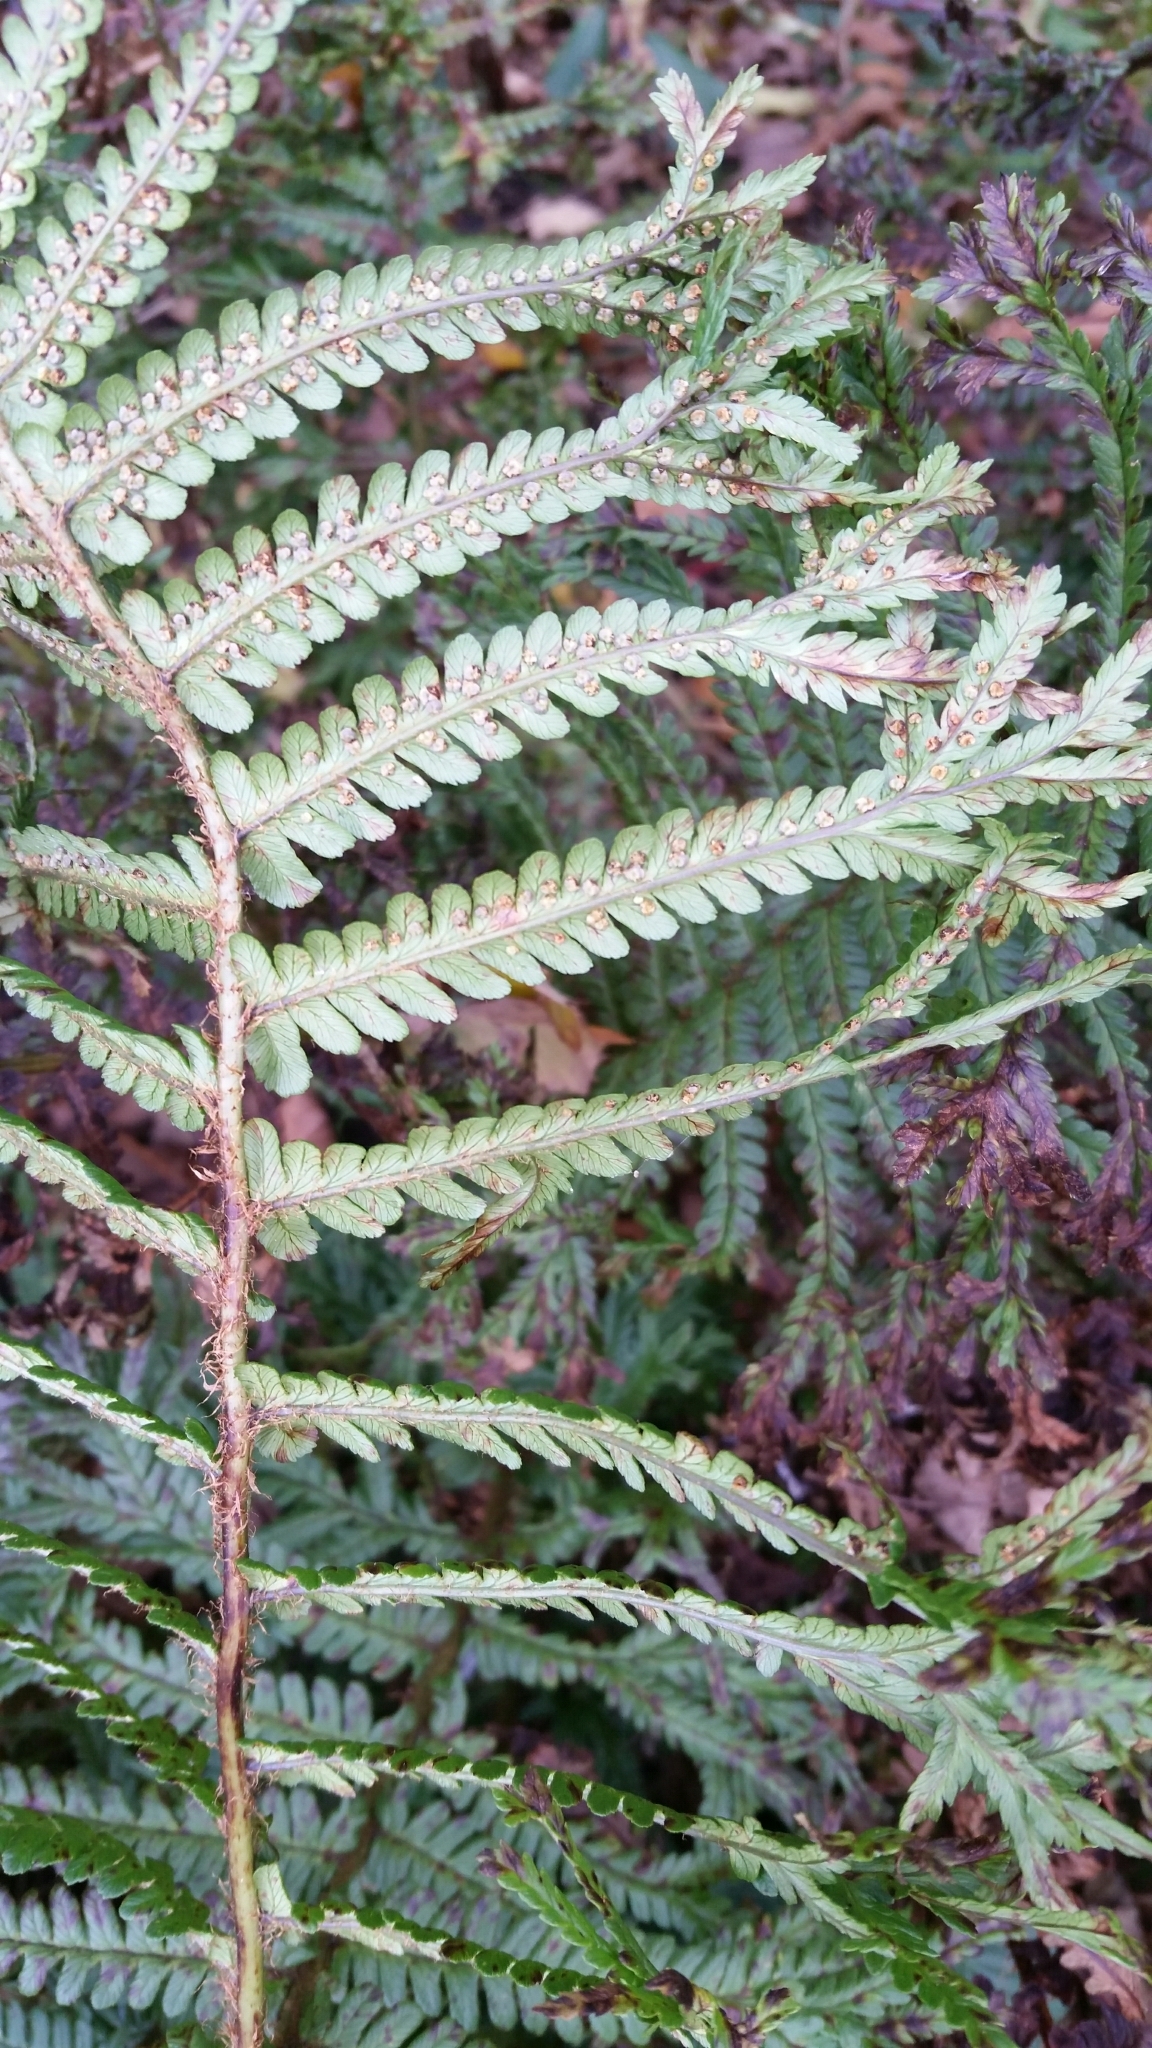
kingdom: Plantae
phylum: Tracheophyta
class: Polypodiopsida
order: Polypodiales
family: Dryopteridaceae
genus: Dryopteris
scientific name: Dryopteris affinis
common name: Scaly male fern
